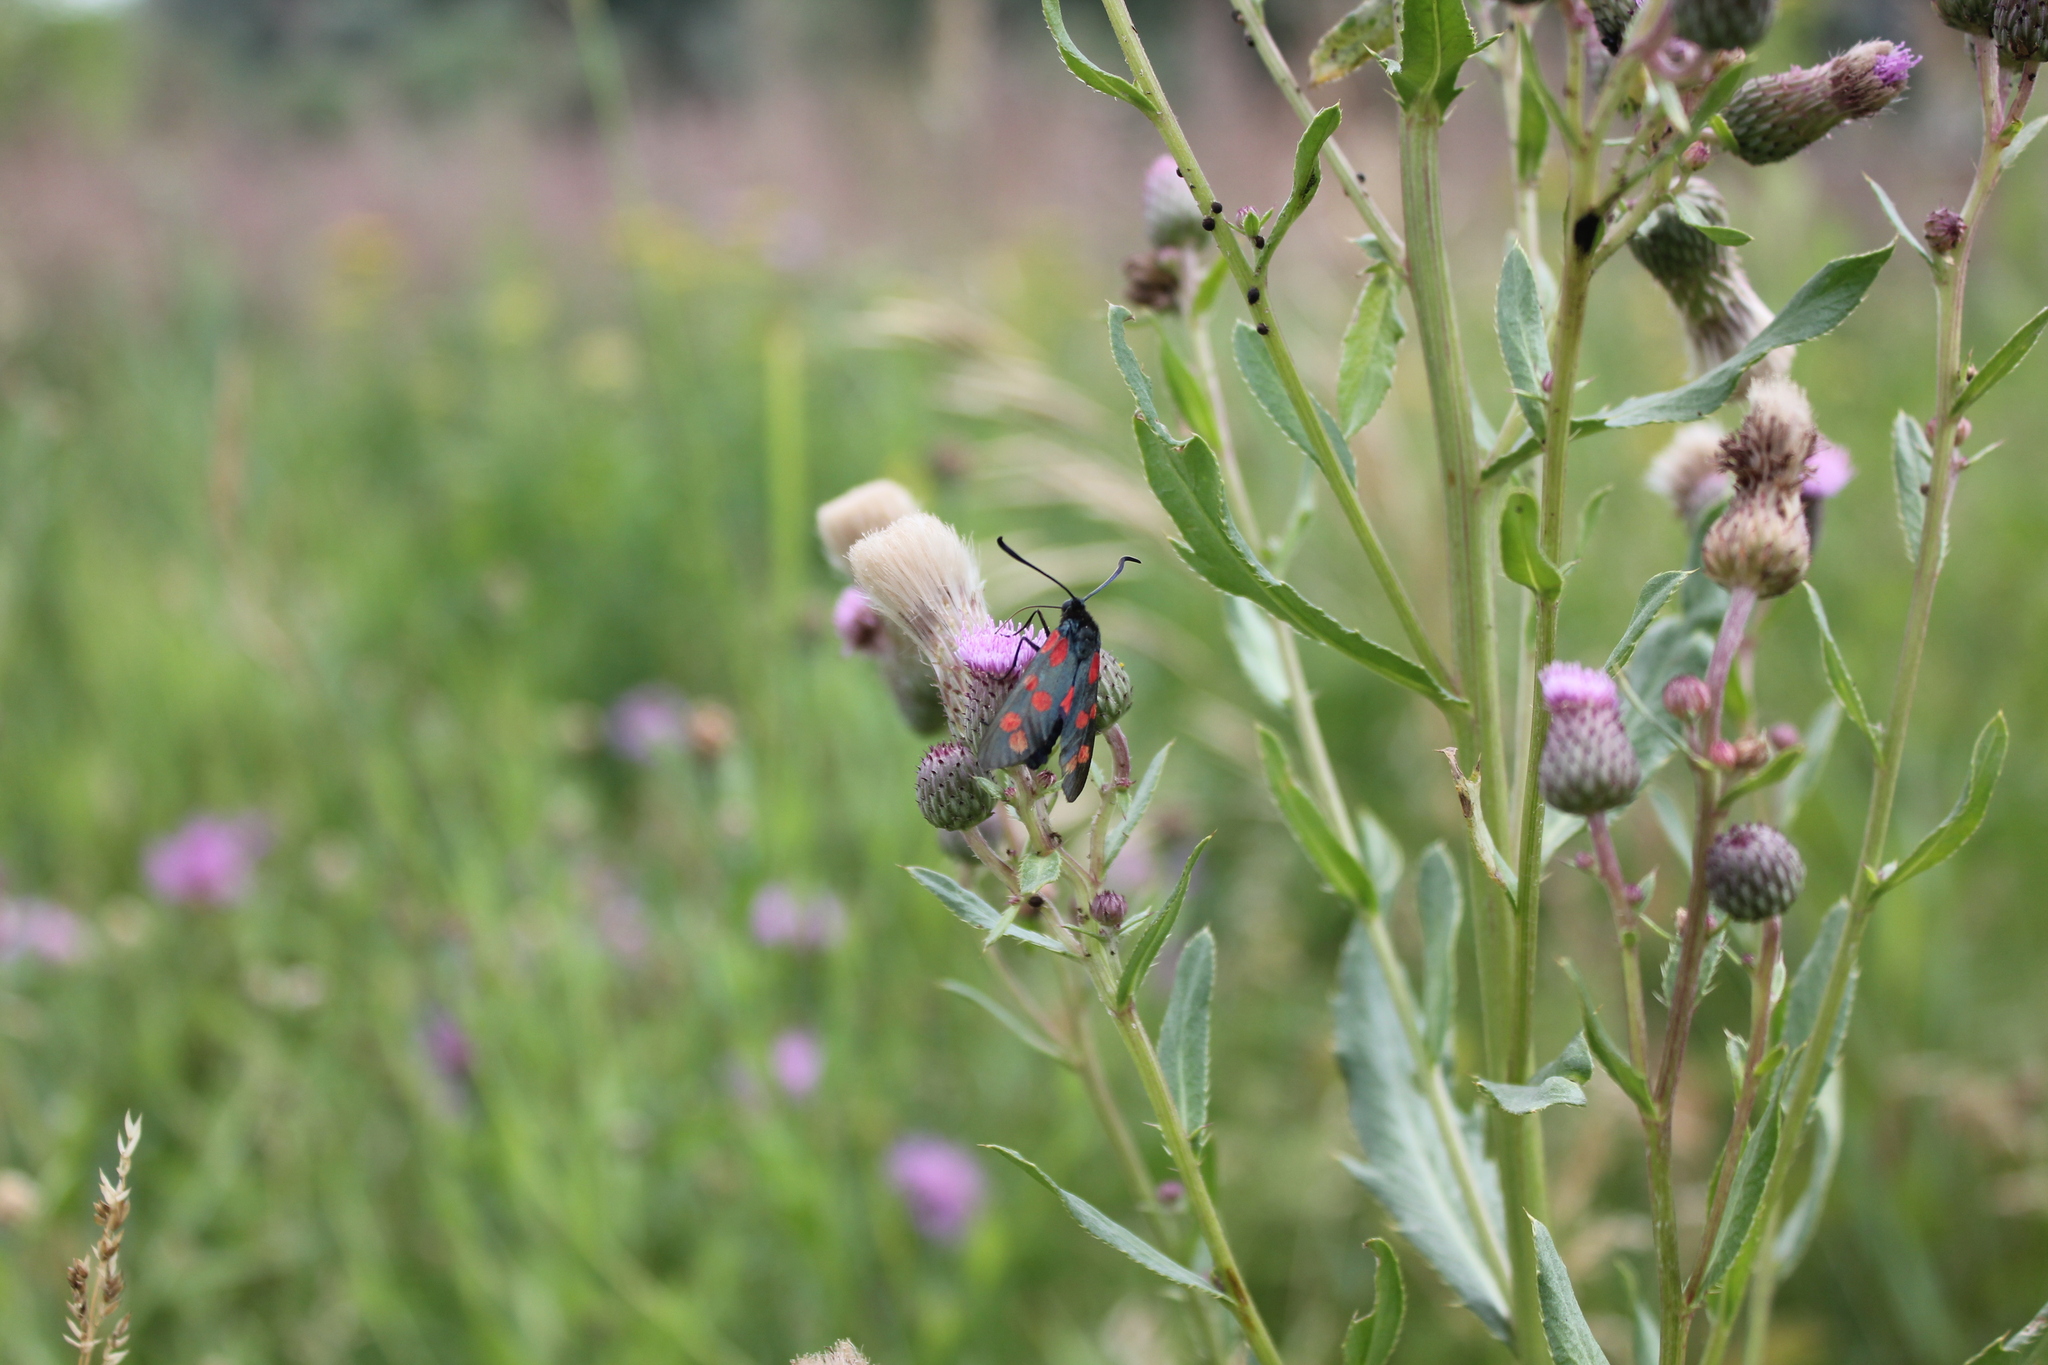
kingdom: Animalia
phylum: Arthropoda
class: Insecta
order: Lepidoptera
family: Zygaenidae
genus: Zygaena
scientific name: Zygaena filipendulae
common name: Six-spot burnet
